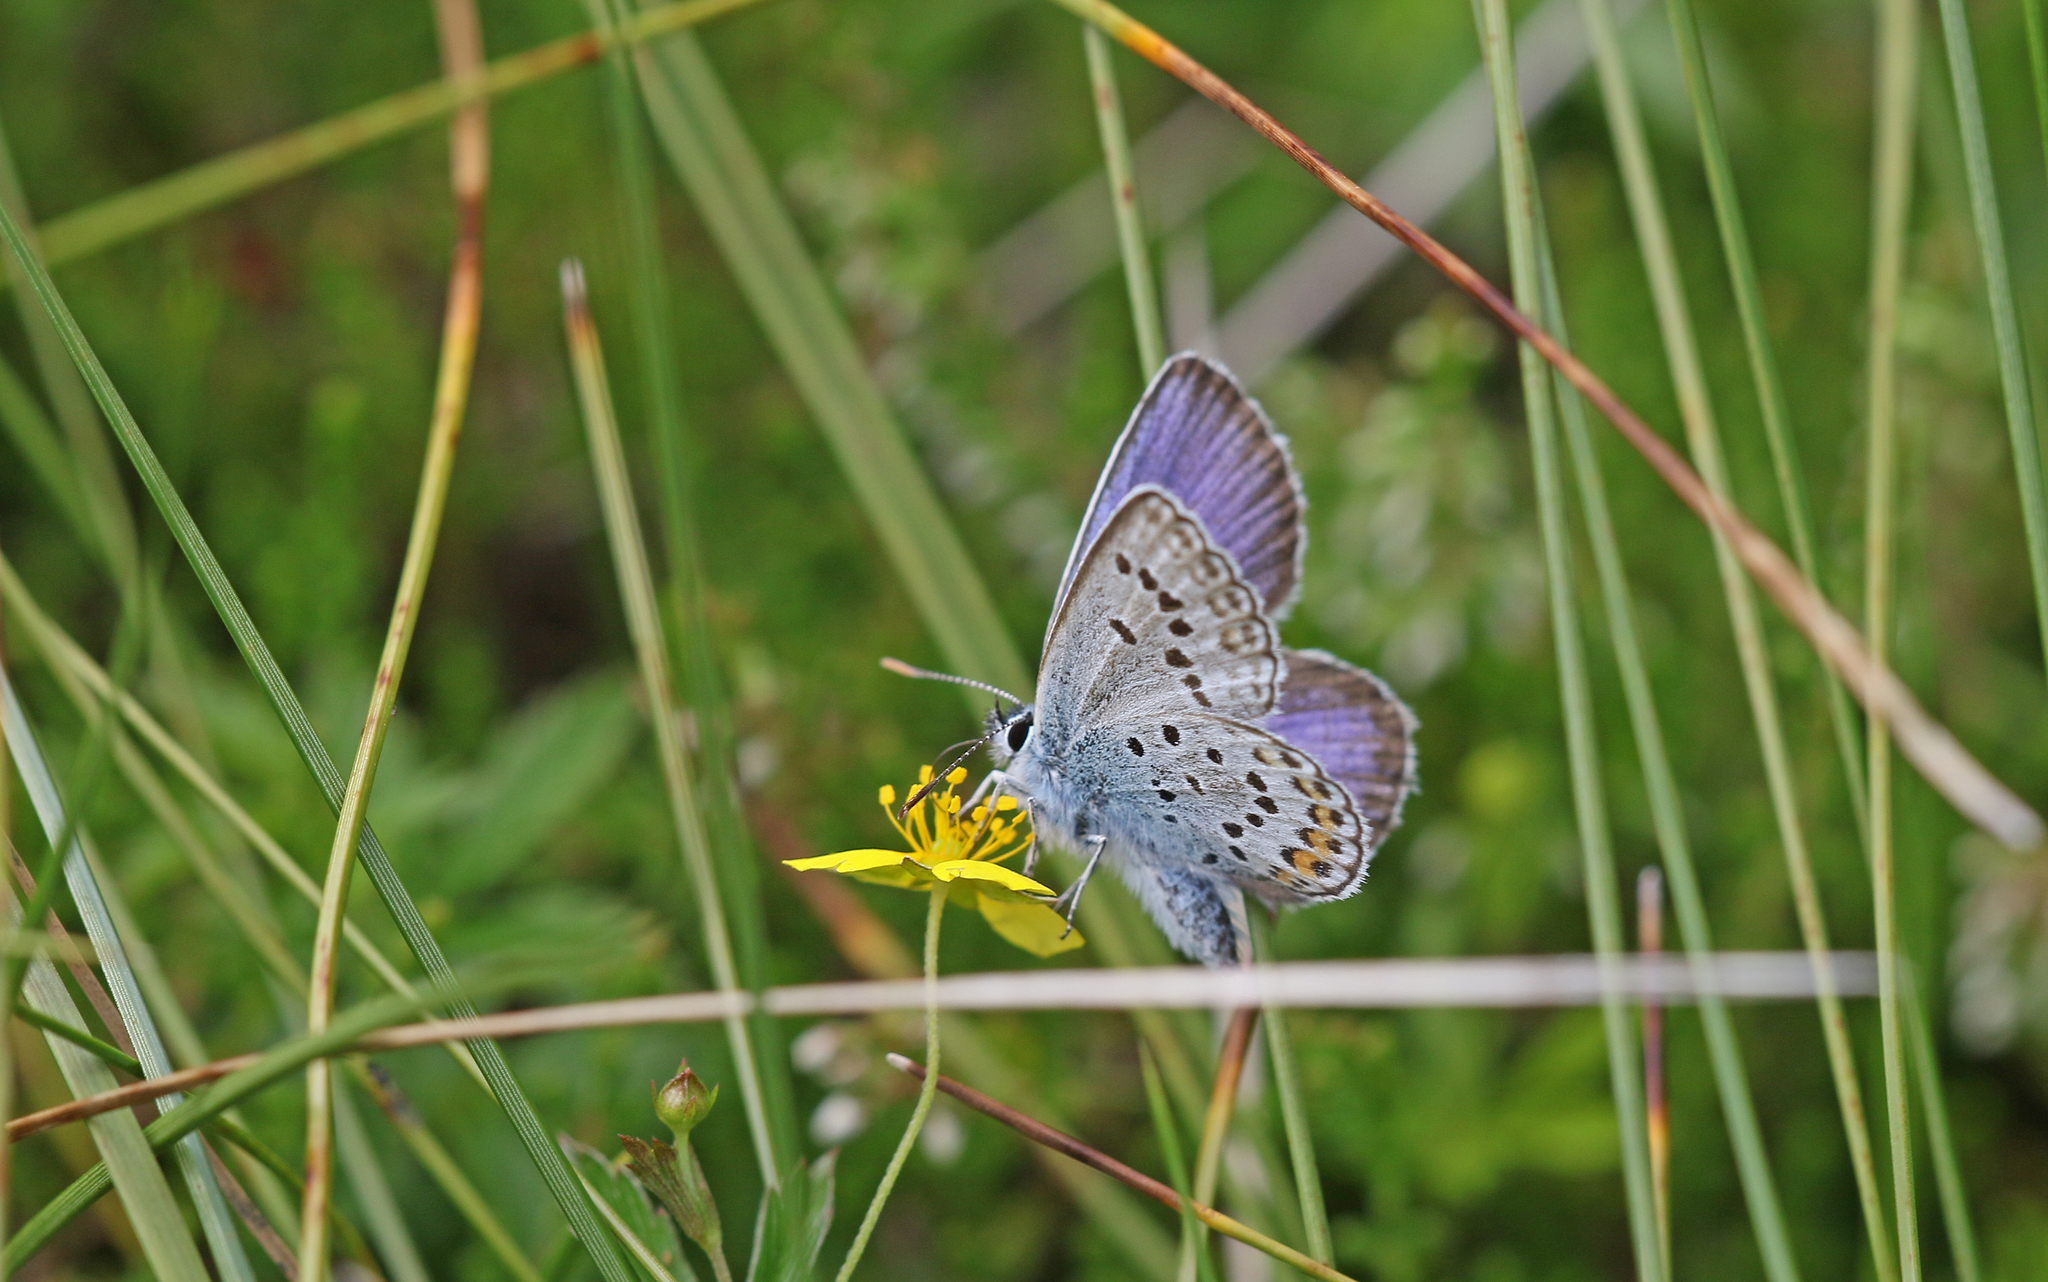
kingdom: Animalia
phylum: Arthropoda
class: Insecta
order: Lepidoptera
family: Lycaenidae
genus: Plebejus
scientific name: Plebejus argus
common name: Silver-studded blue
